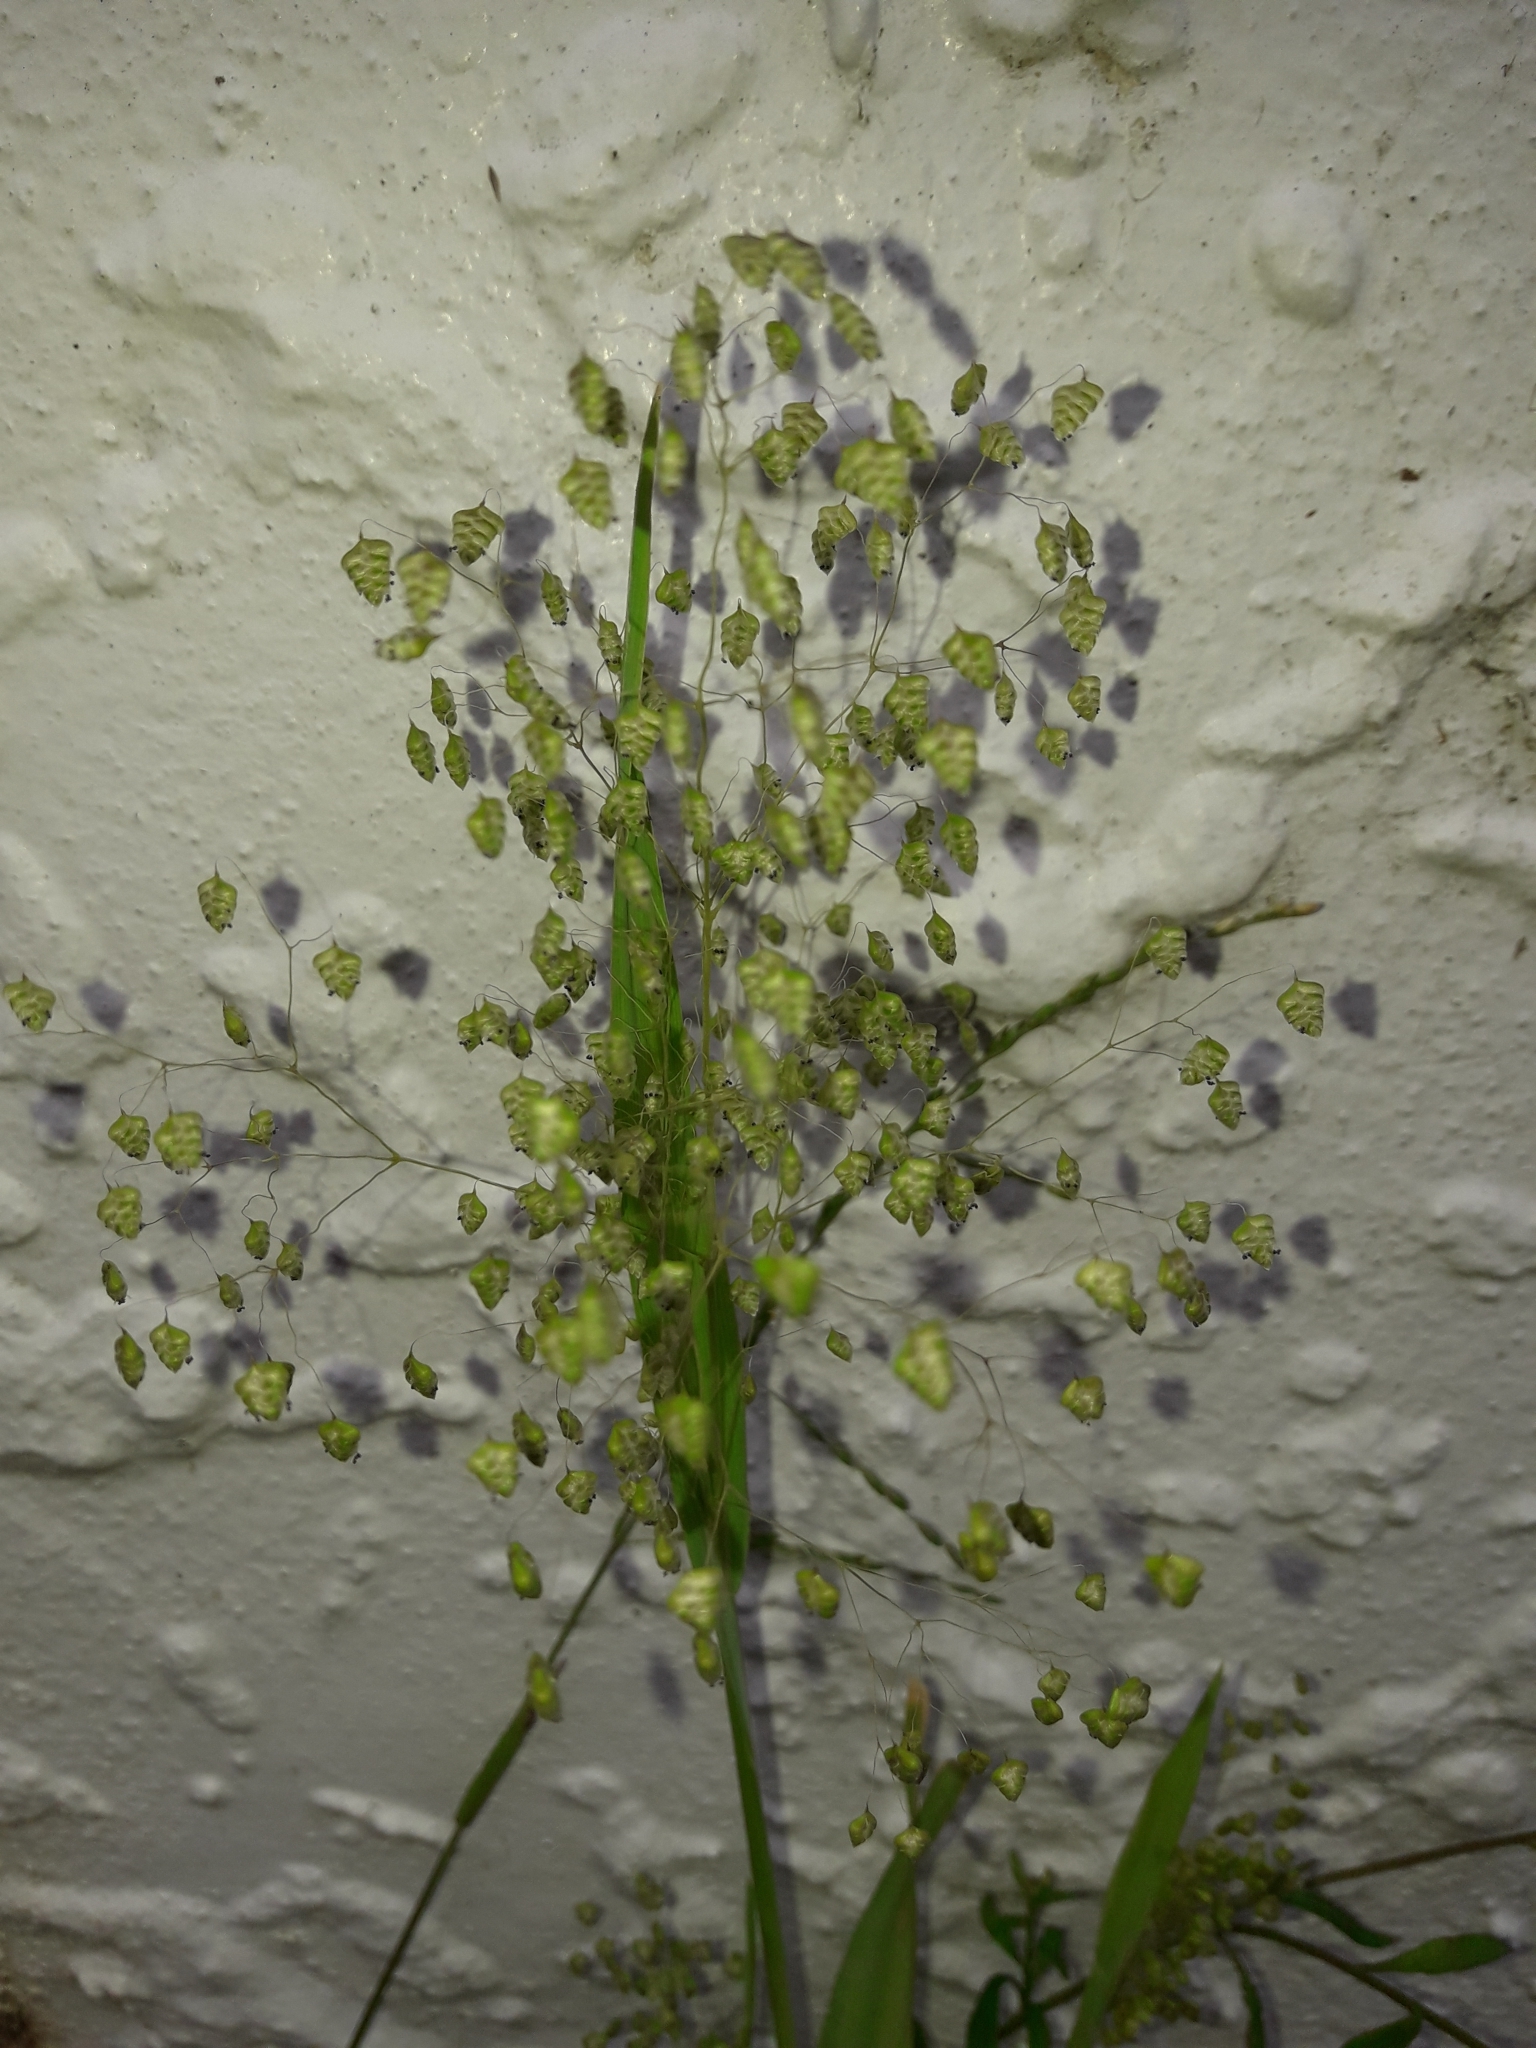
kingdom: Plantae
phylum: Tracheophyta
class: Liliopsida
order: Poales
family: Poaceae
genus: Briza
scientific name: Briza minor
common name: Lesser quaking-grass
